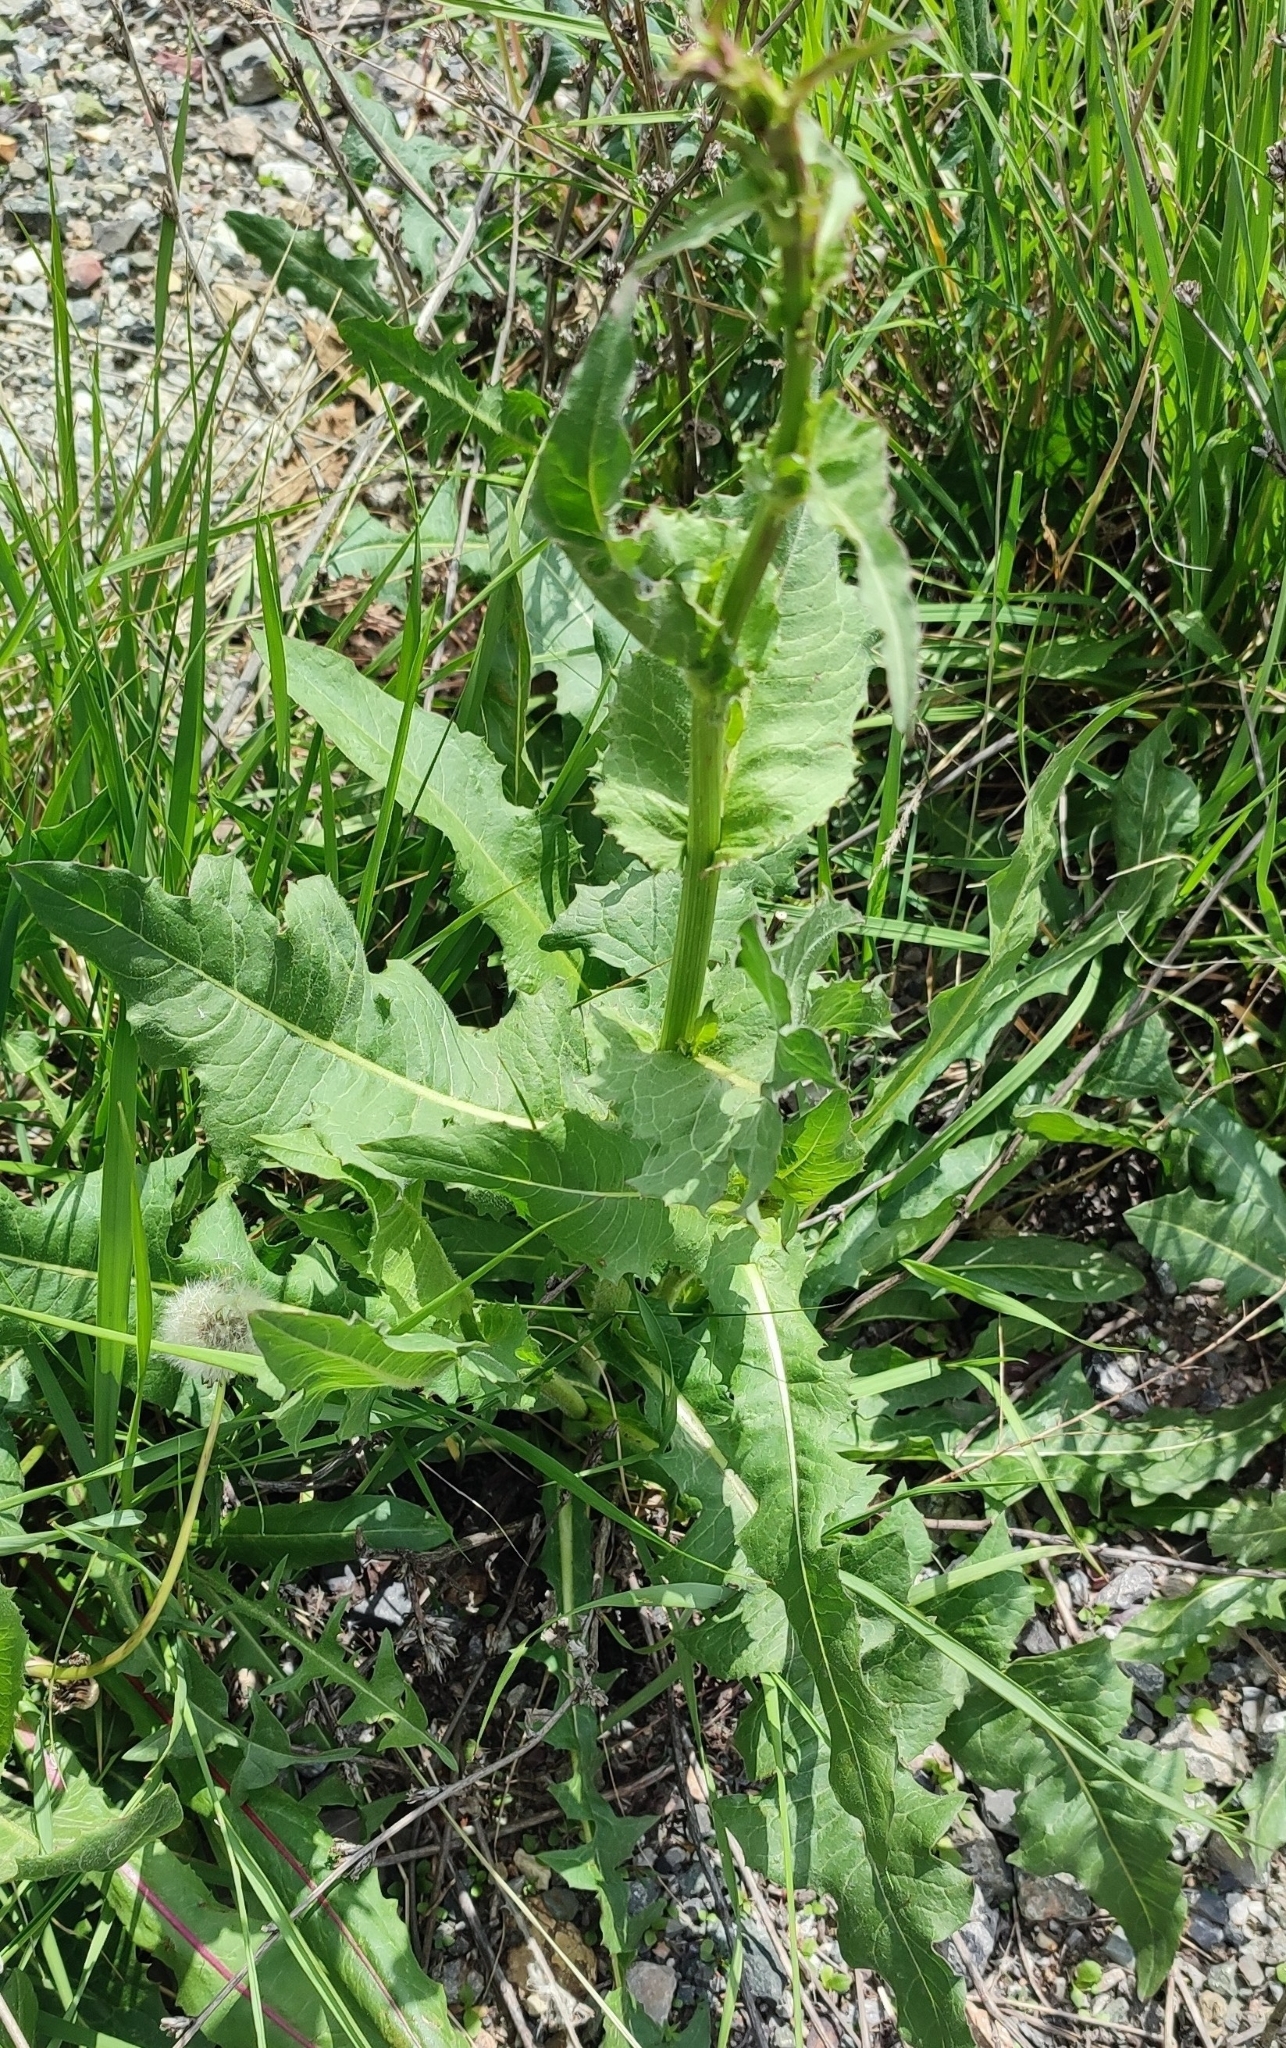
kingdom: Plantae
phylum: Tracheophyta
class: Magnoliopsida
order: Asterales
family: Asteraceae
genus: Cichorium
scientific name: Cichorium intybus
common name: Chicory
